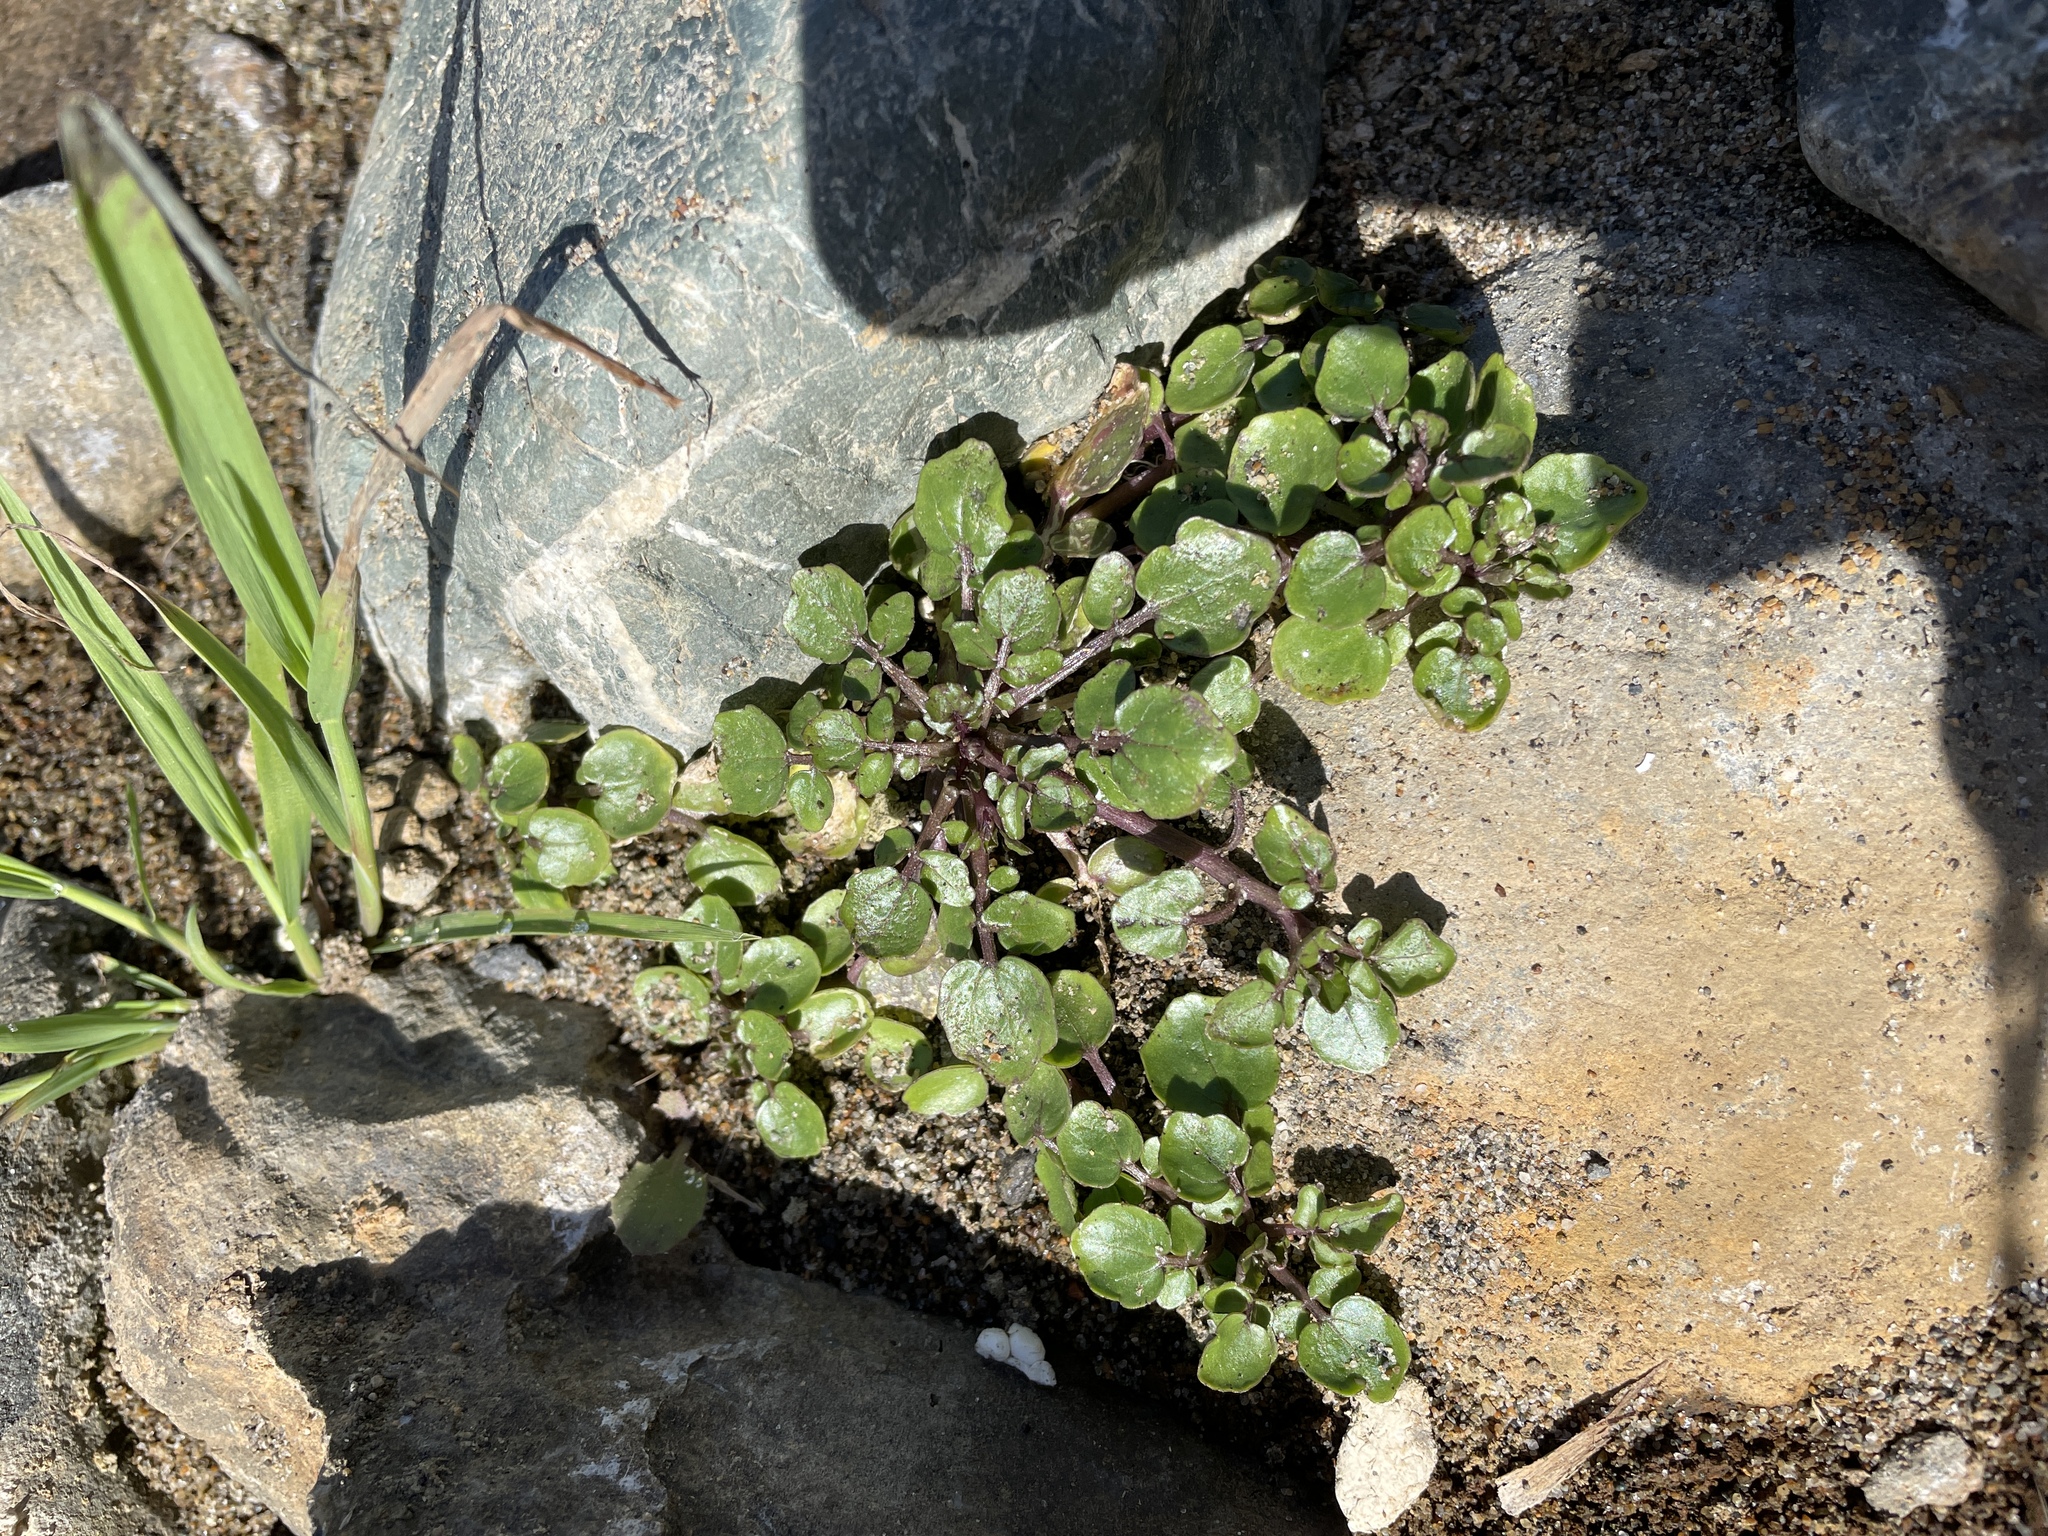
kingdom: Plantae
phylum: Tracheophyta
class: Magnoliopsida
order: Brassicales
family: Brassicaceae
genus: Nasturtium
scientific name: Nasturtium officinale
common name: Watercress
